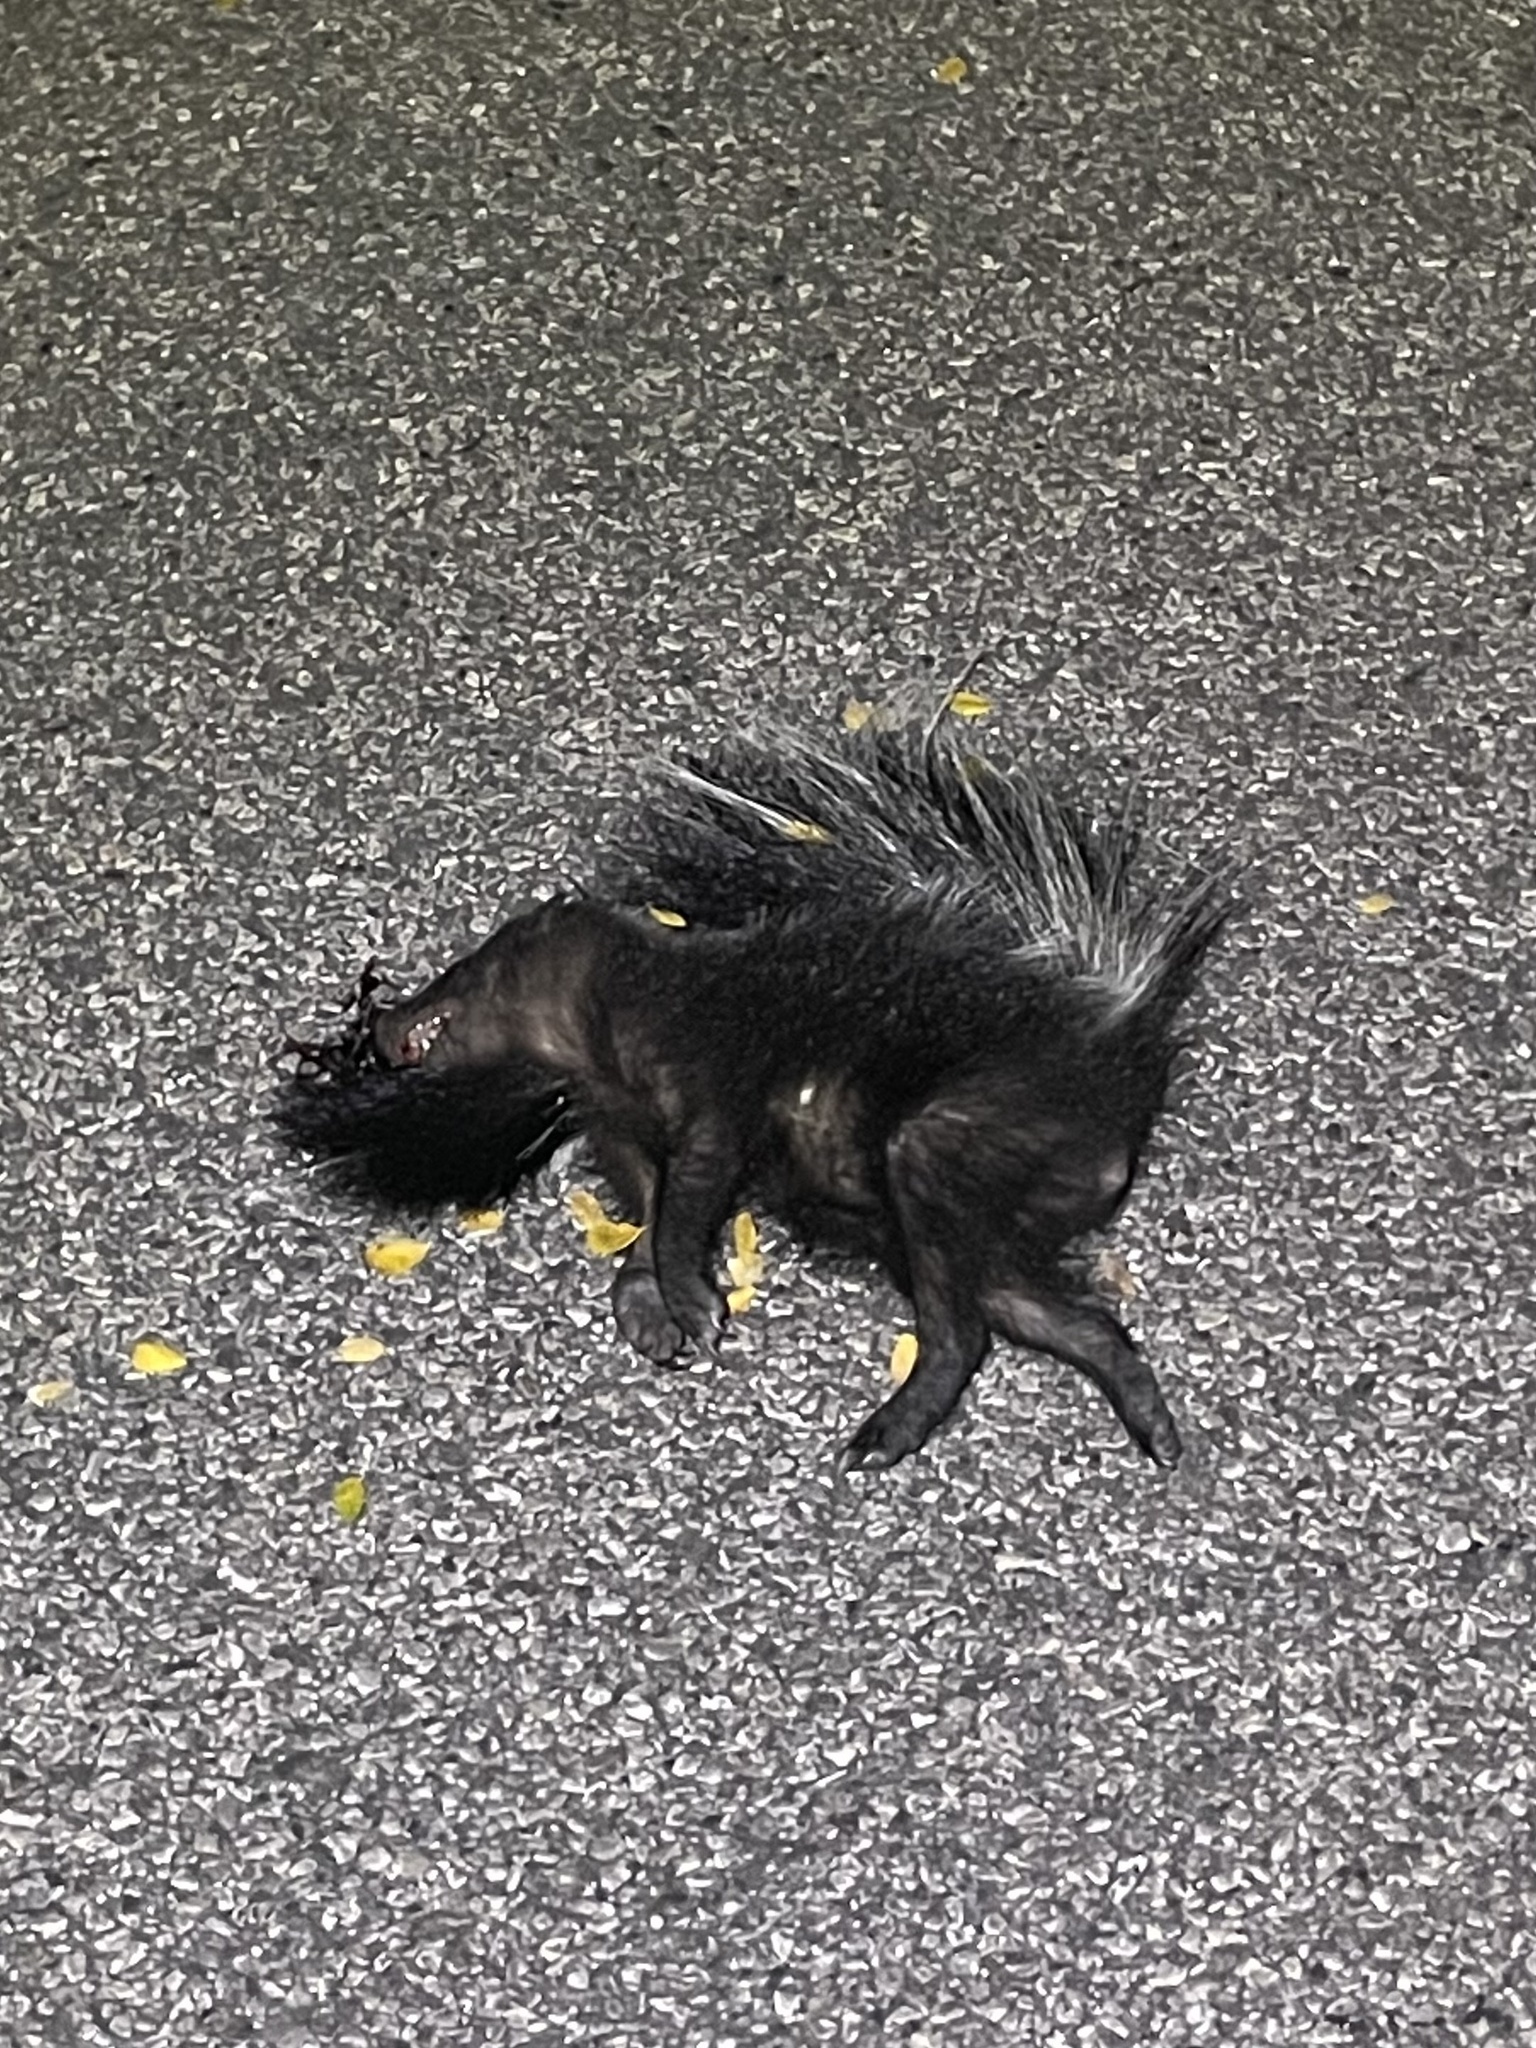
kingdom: Animalia
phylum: Chordata
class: Mammalia
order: Carnivora
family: Mephitidae
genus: Mephitis
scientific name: Mephitis mephitis
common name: Striped skunk
